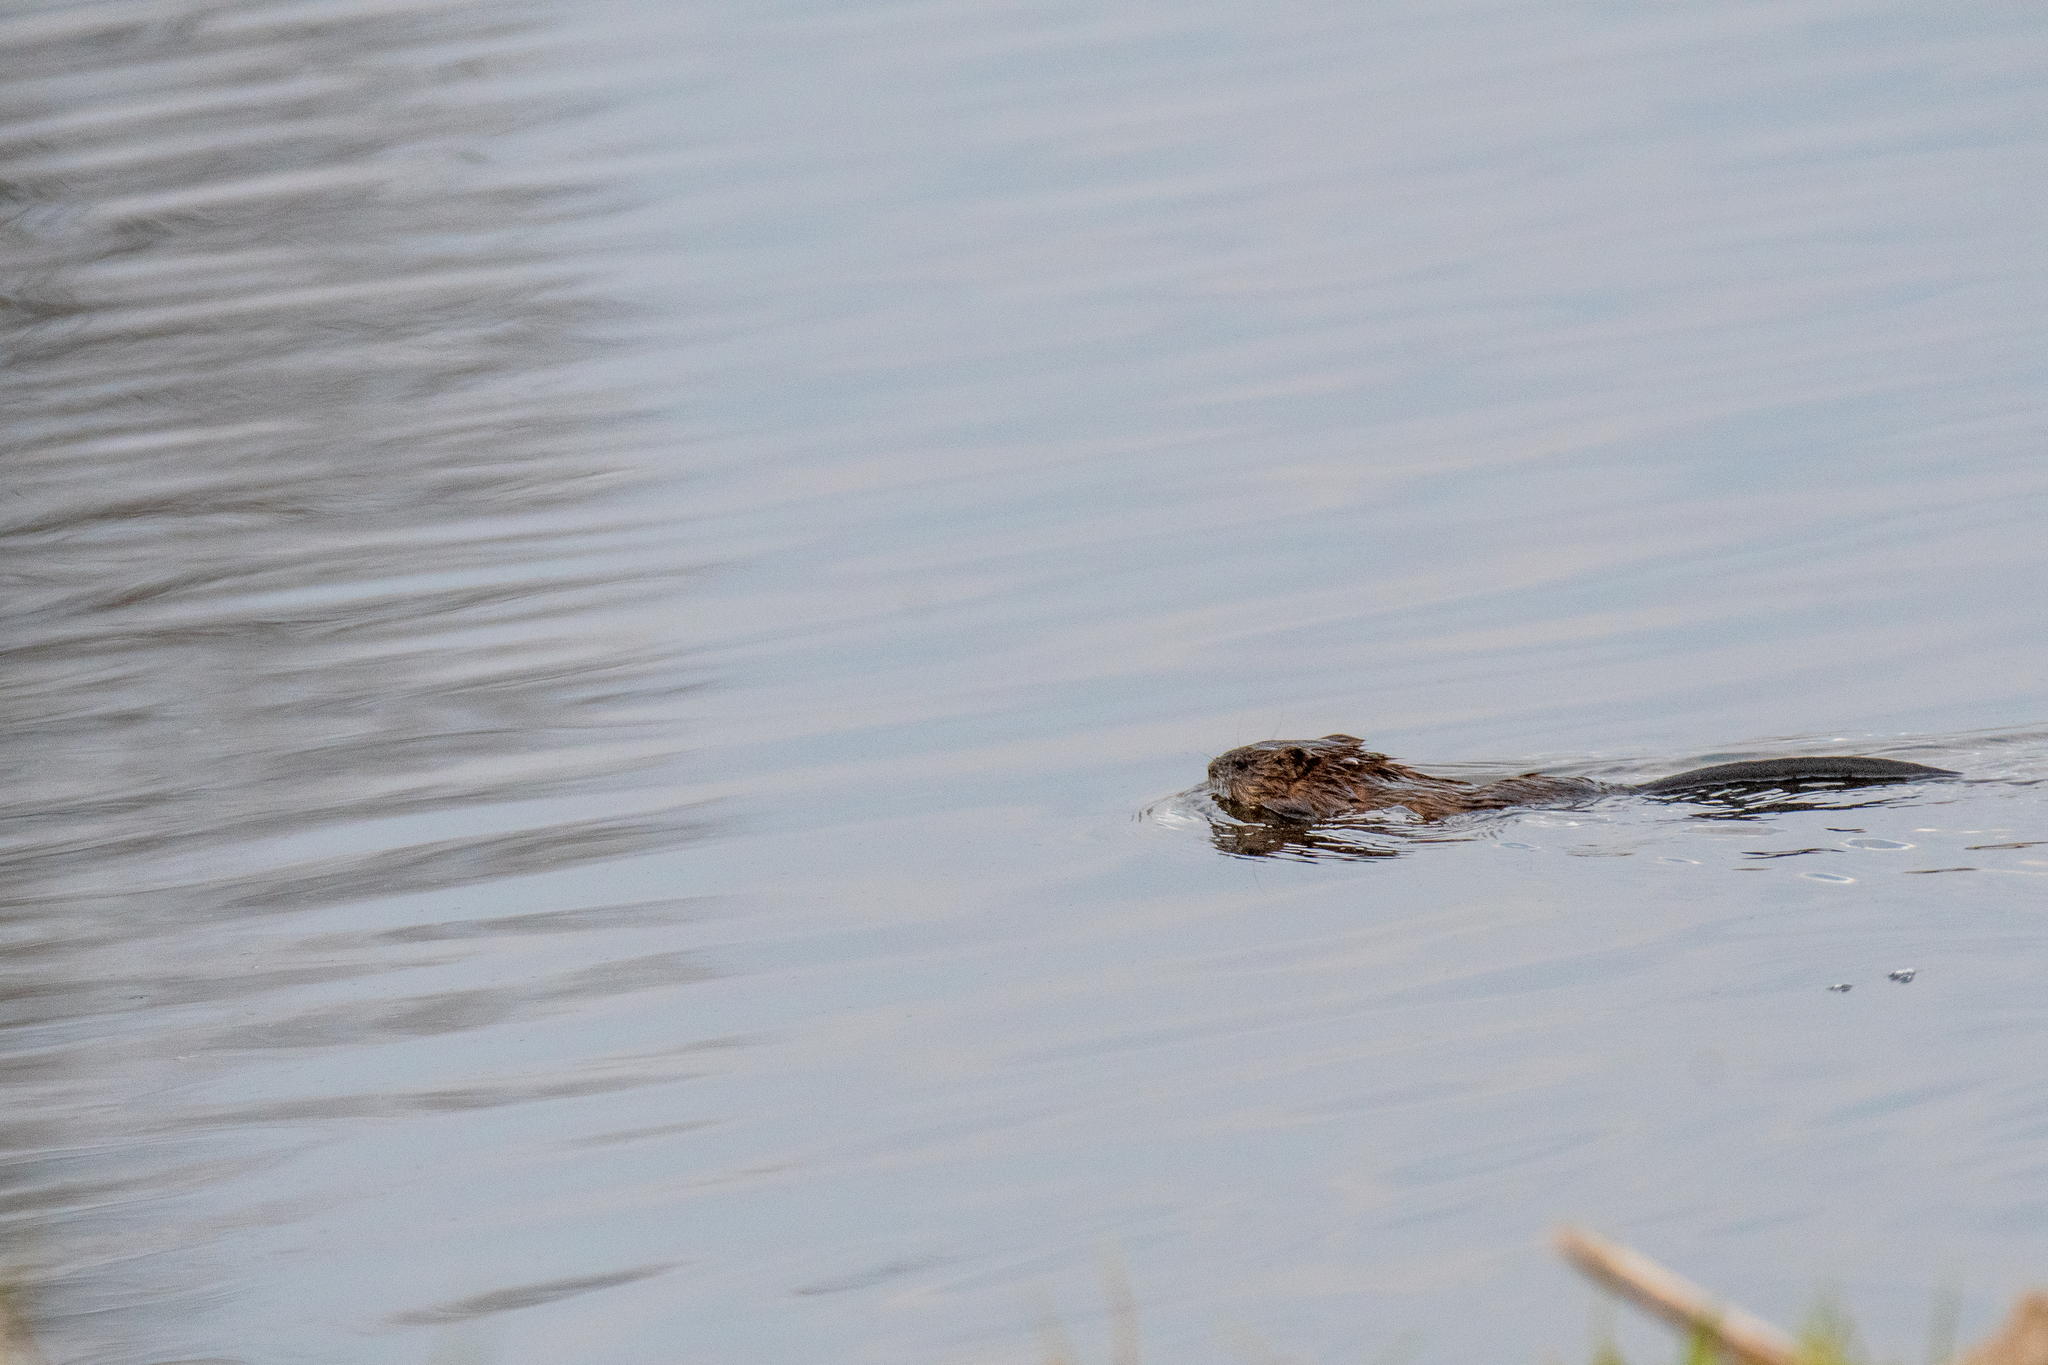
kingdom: Animalia
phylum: Chordata
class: Mammalia
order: Rodentia
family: Cricetidae
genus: Ondatra
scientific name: Ondatra zibethicus
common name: Muskrat
